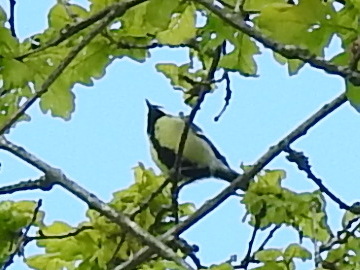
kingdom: Animalia
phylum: Chordata
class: Aves
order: Passeriformes
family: Paridae
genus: Parus
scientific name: Parus major
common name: Great tit
